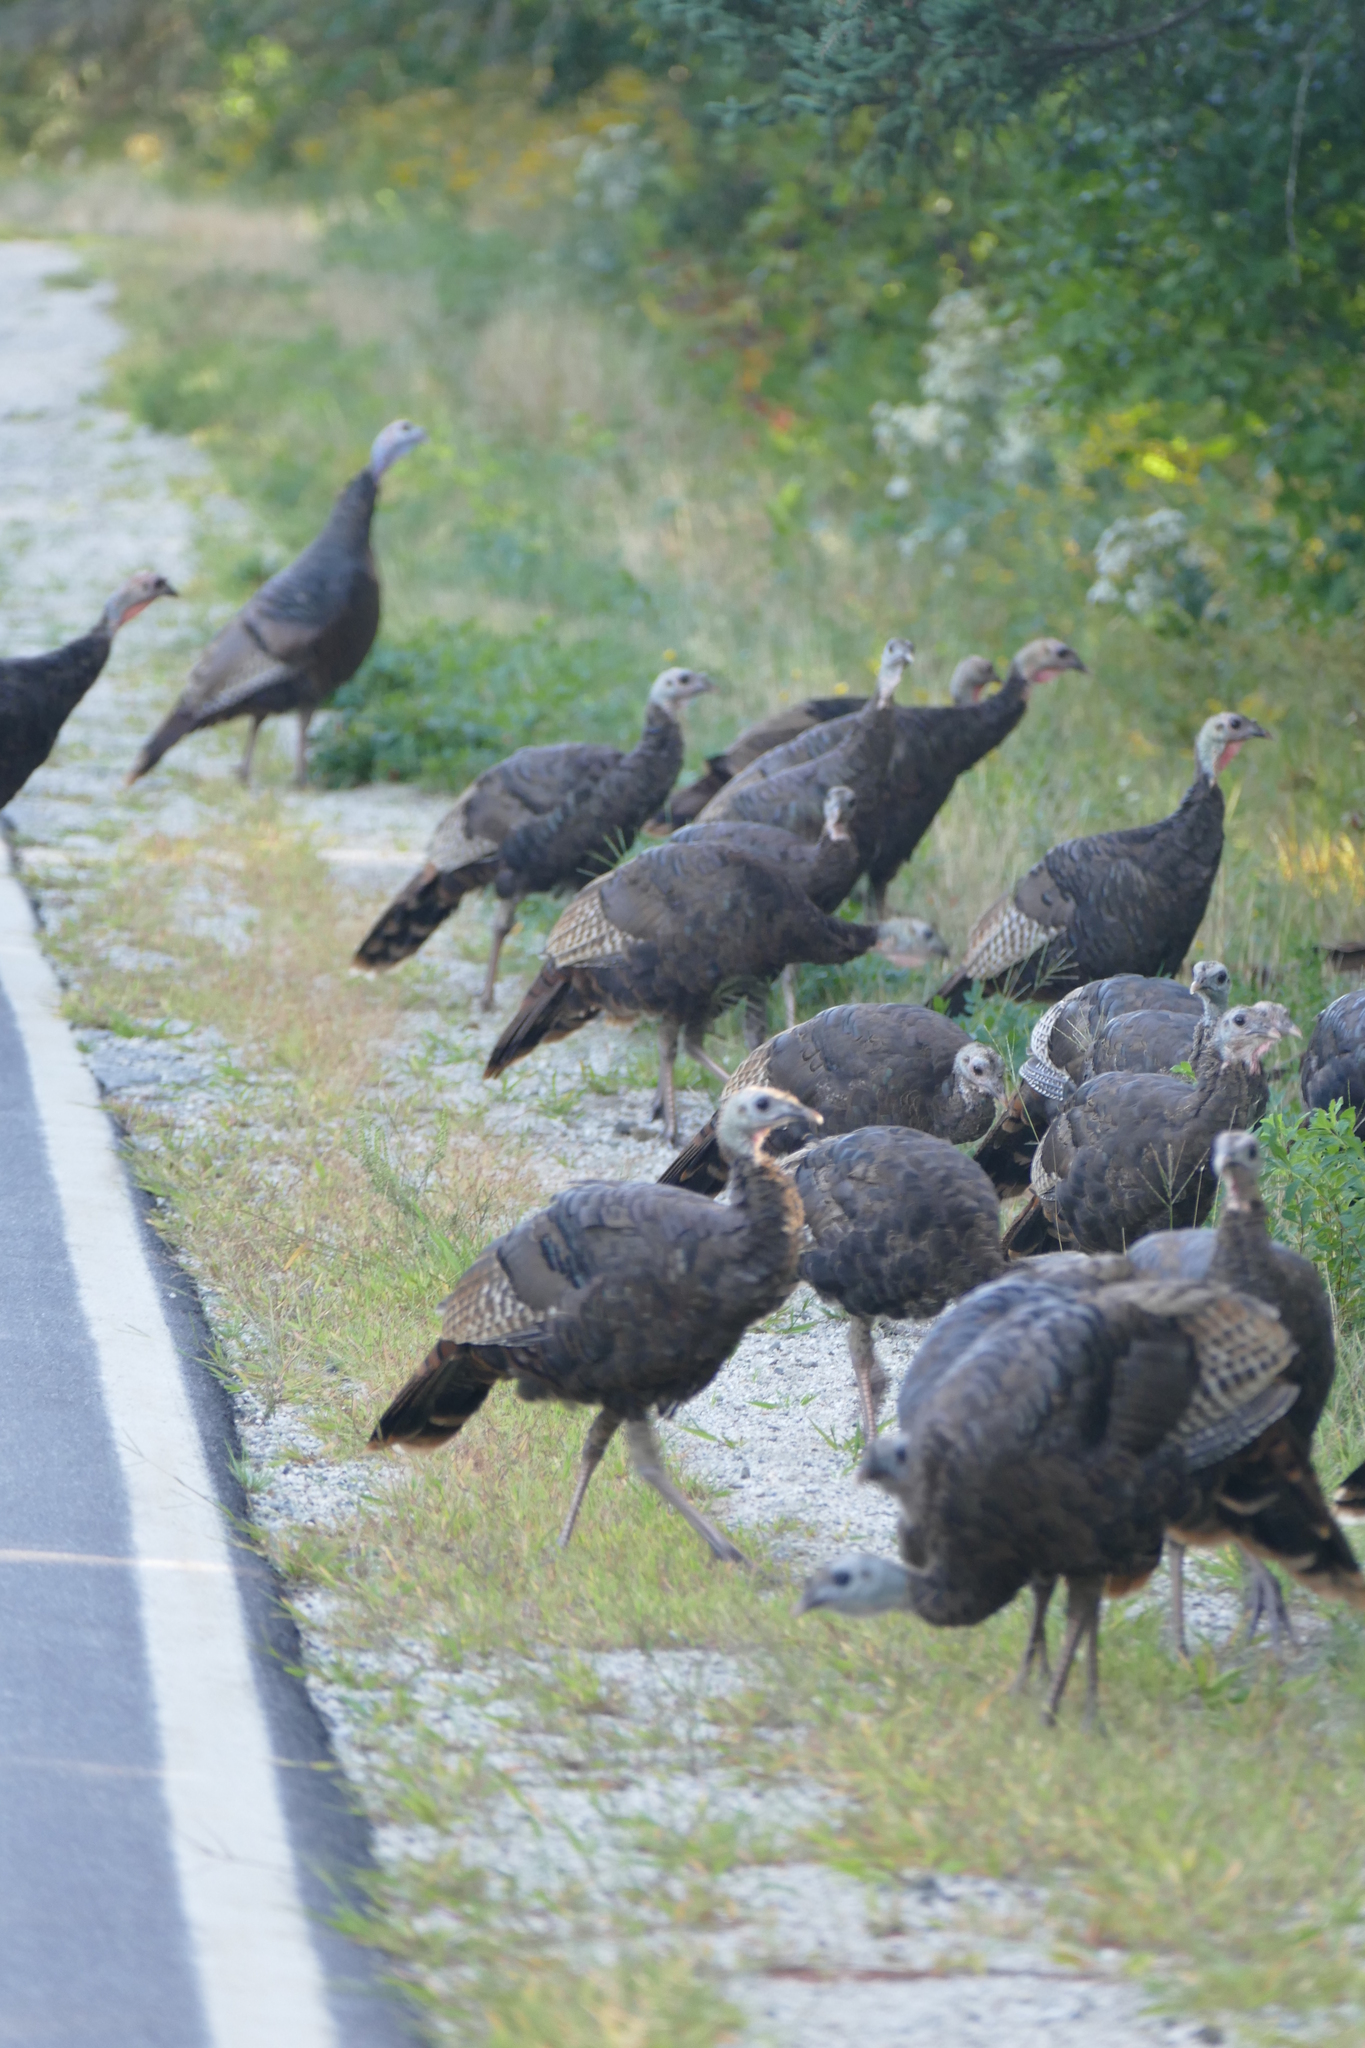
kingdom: Animalia
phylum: Chordata
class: Aves
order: Galliformes
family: Phasianidae
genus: Meleagris
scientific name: Meleagris gallopavo
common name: Wild turkey
